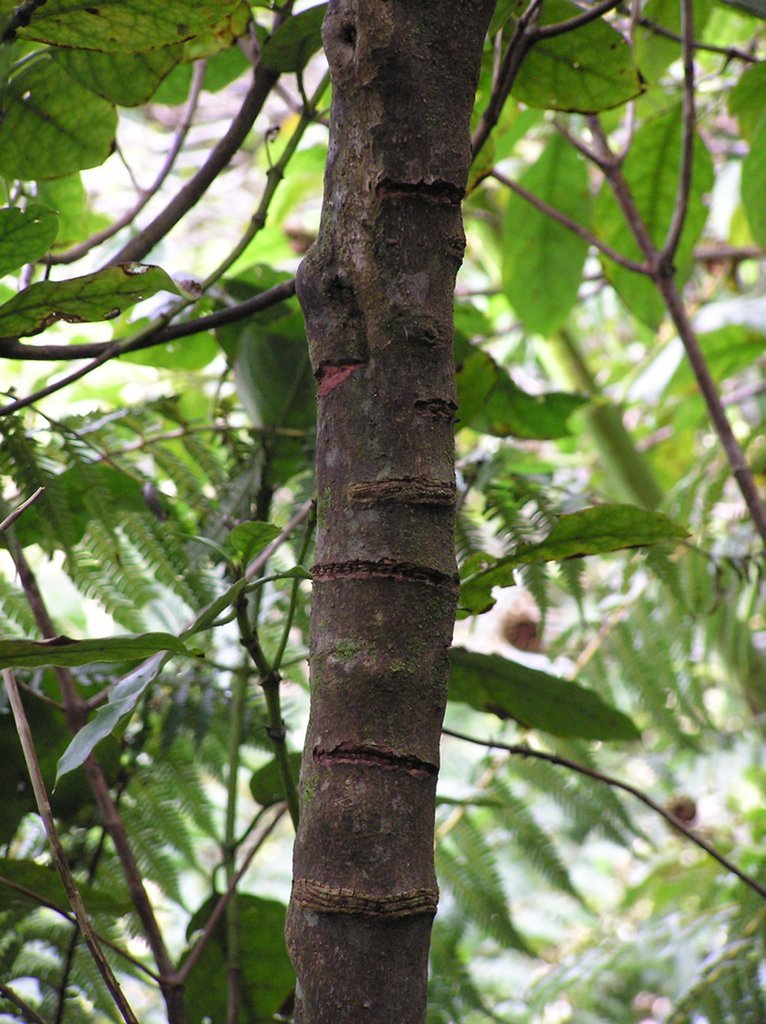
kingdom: Animalia
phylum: Chordata
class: Aves
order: Psittaciformes
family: Psittacidae
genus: Nestor
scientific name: Nestor meridionalis
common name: New zealand kaka
